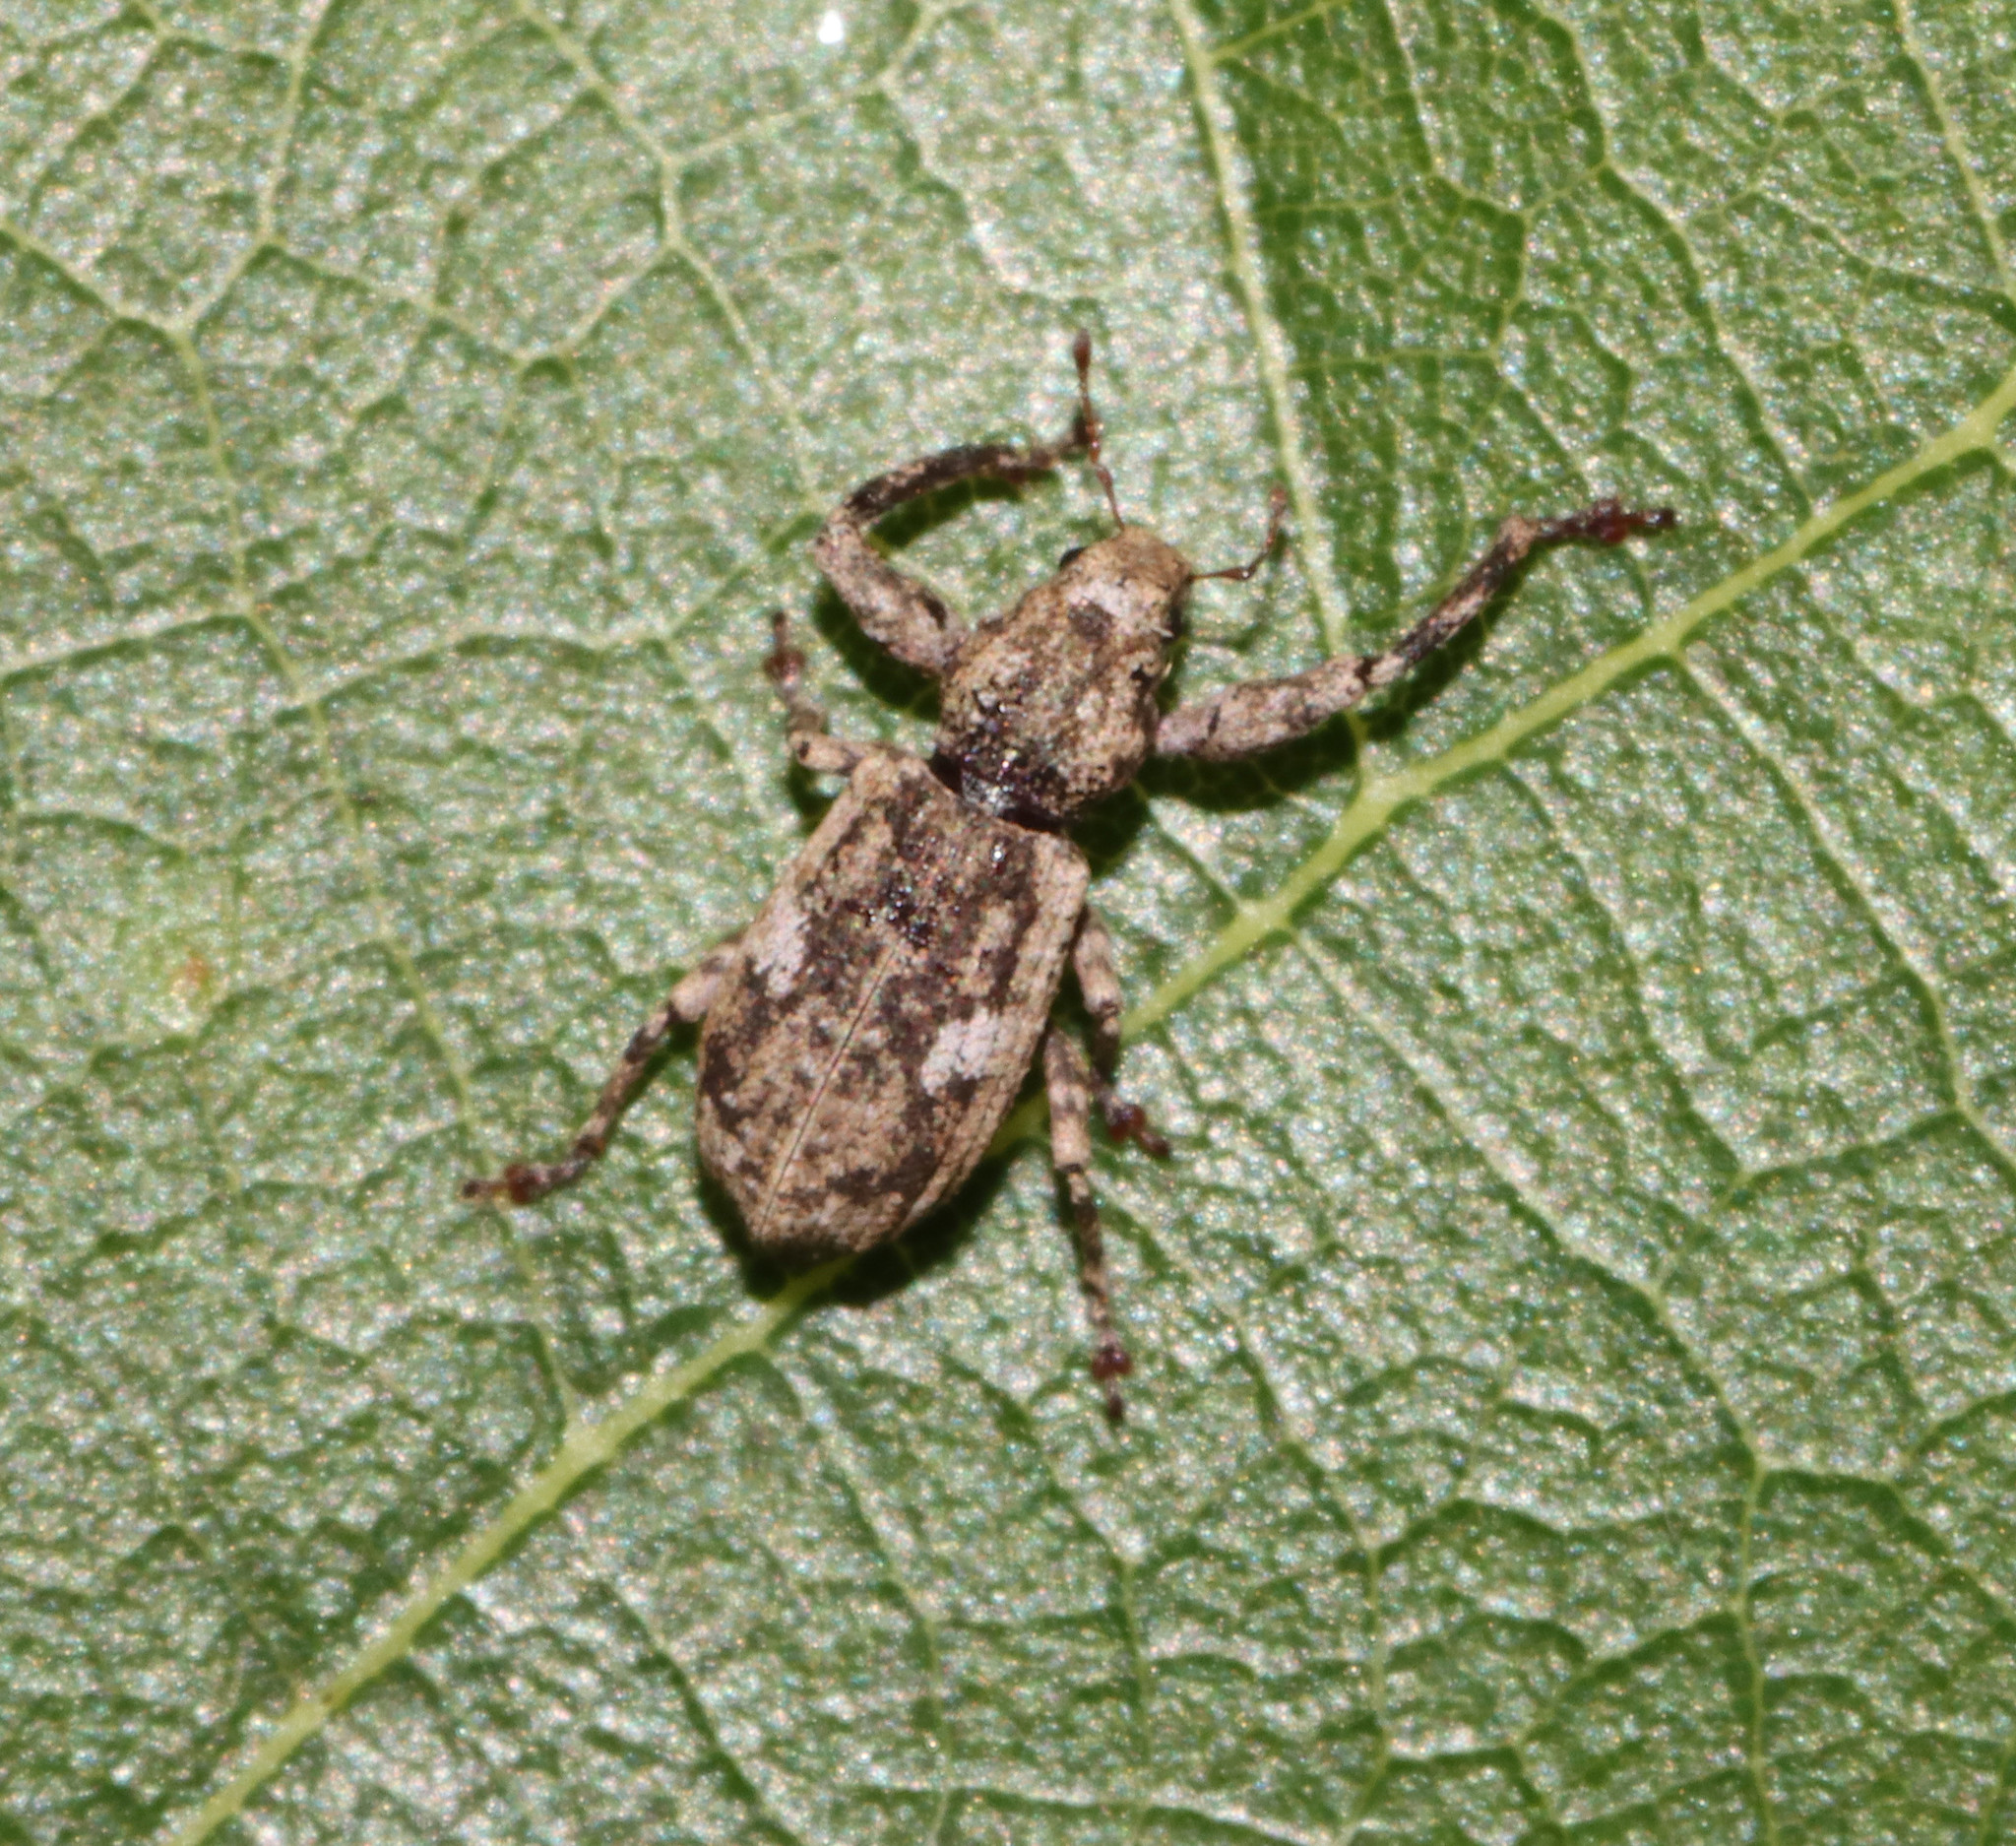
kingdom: Animalia
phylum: Arthropoda
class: Insecta
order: Coleoptera
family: Curculionidae
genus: Pandeleteius
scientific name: Pandeleteius hilaris
